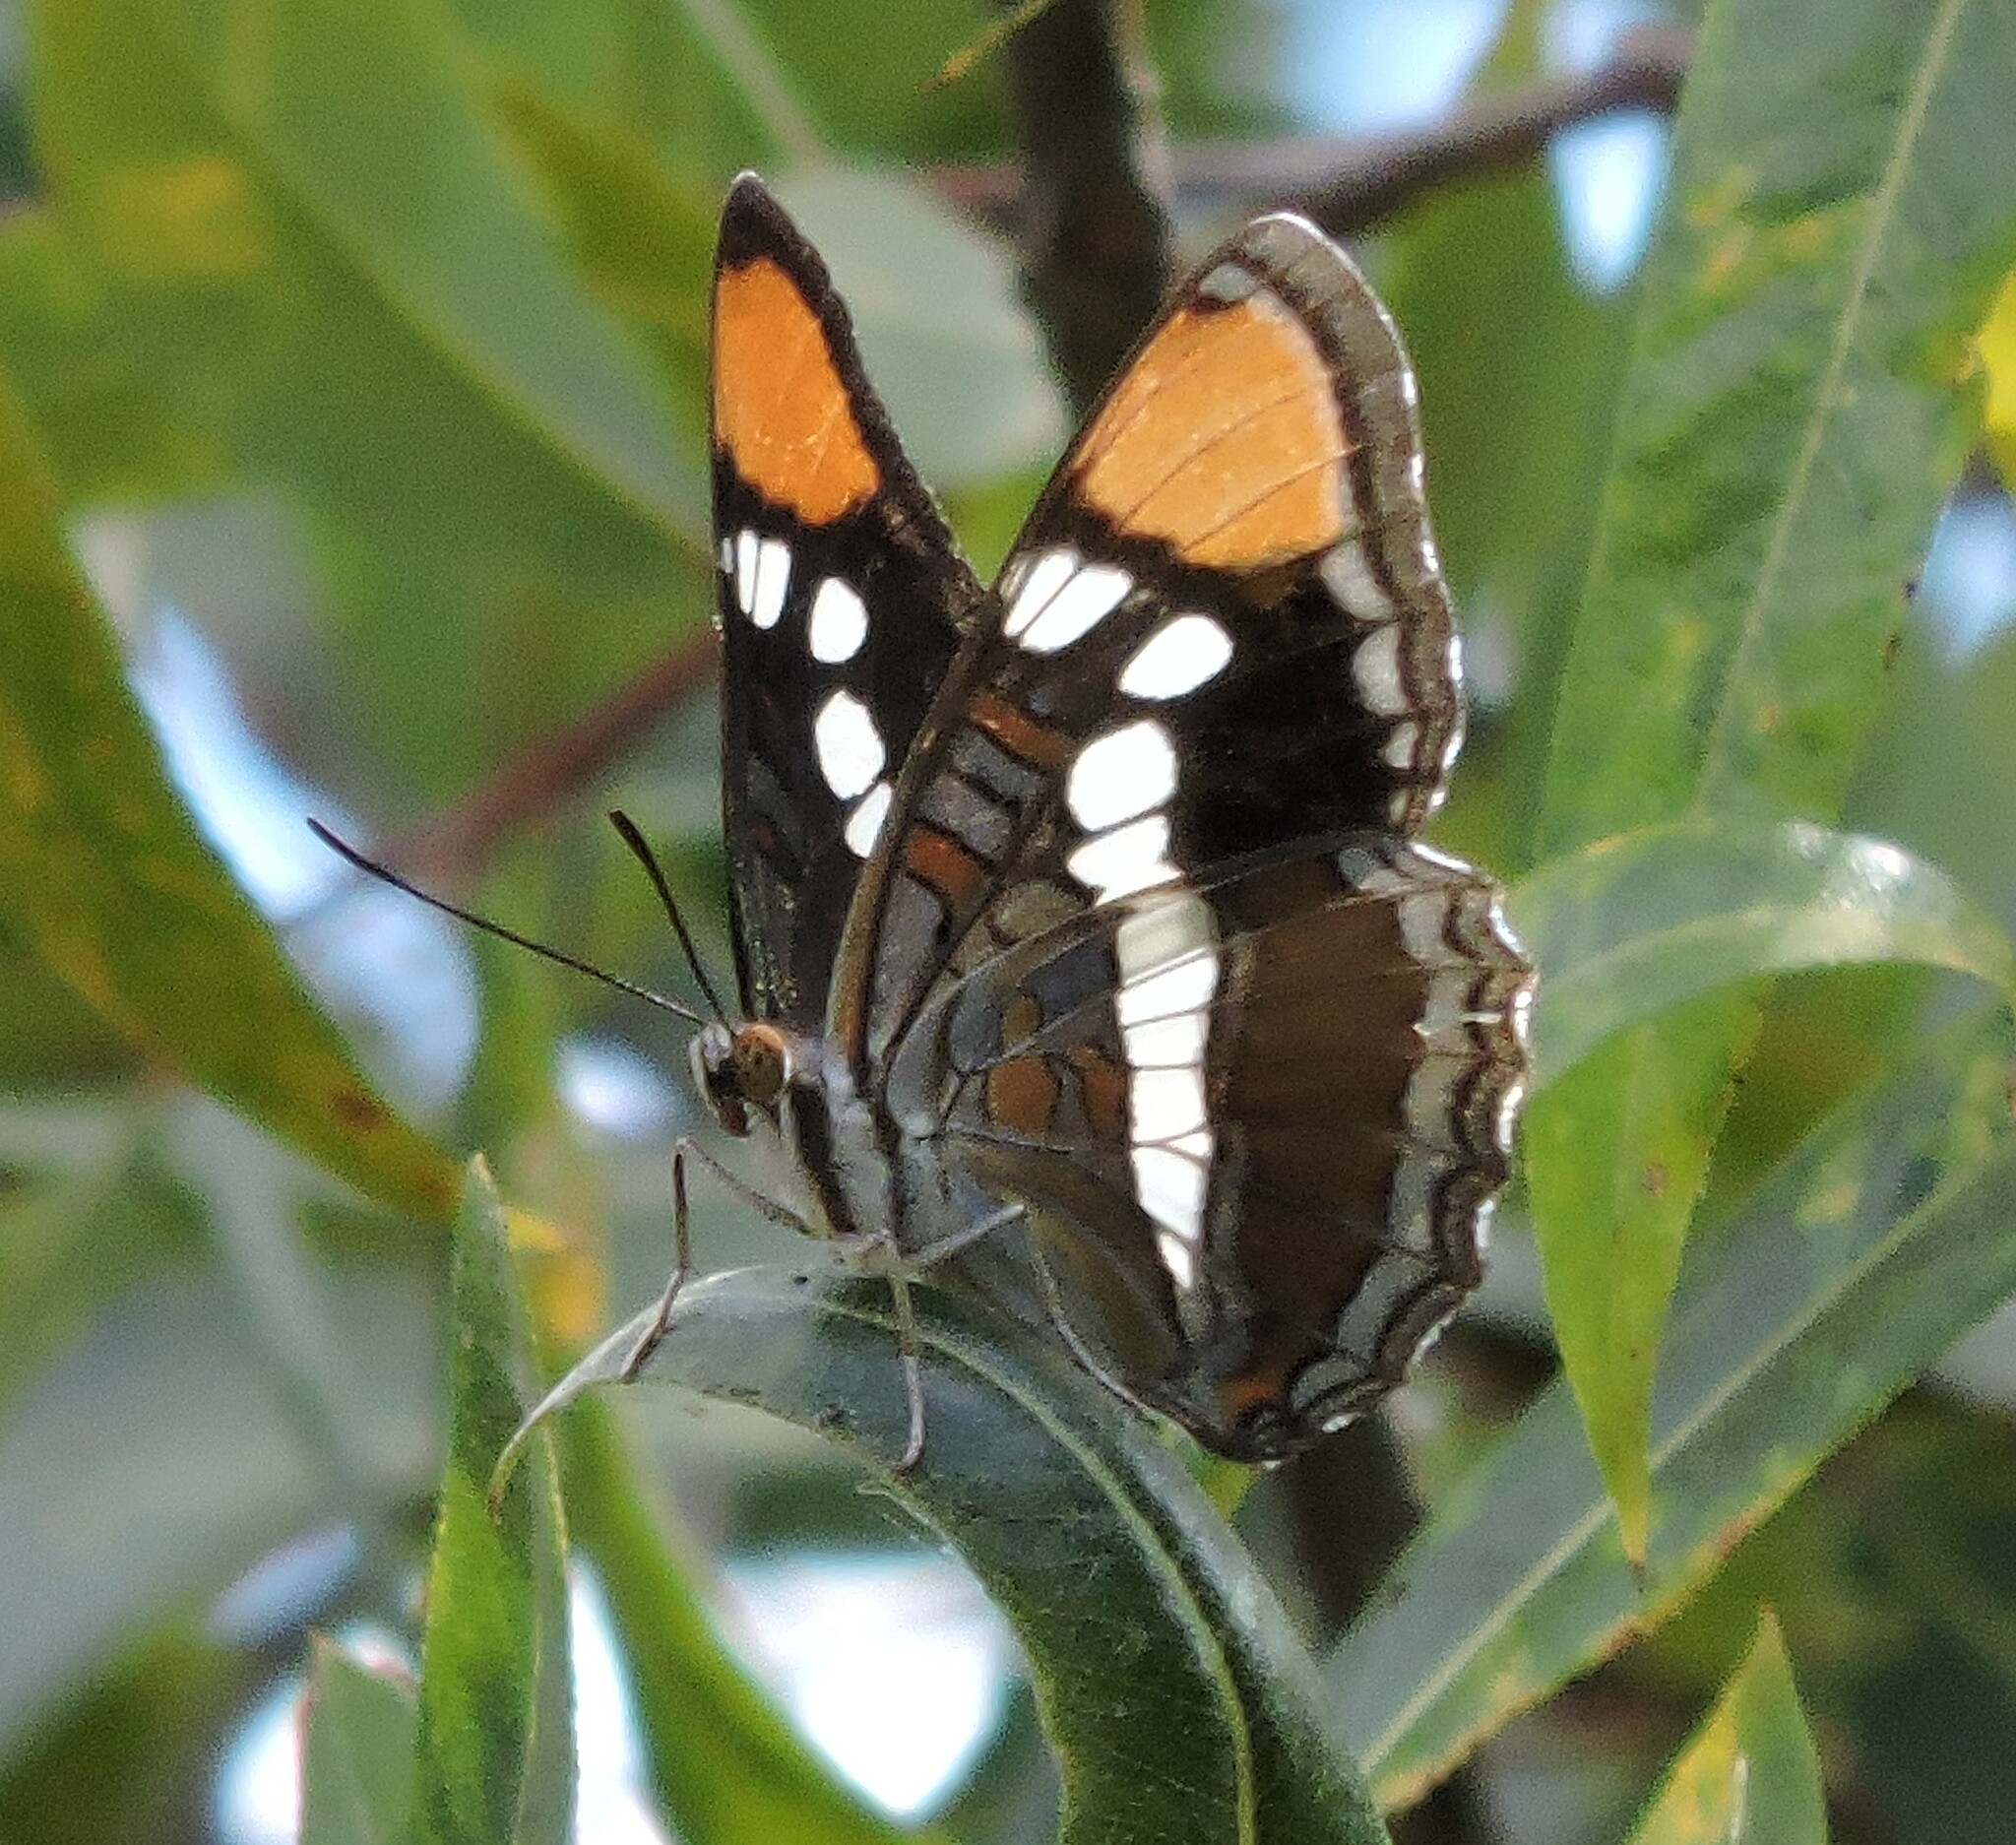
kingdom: Animalia
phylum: Arthropoda
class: Insecta
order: Lepidoptera
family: Nymphalidae
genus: Limenitis
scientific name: Limenitis bredowii
